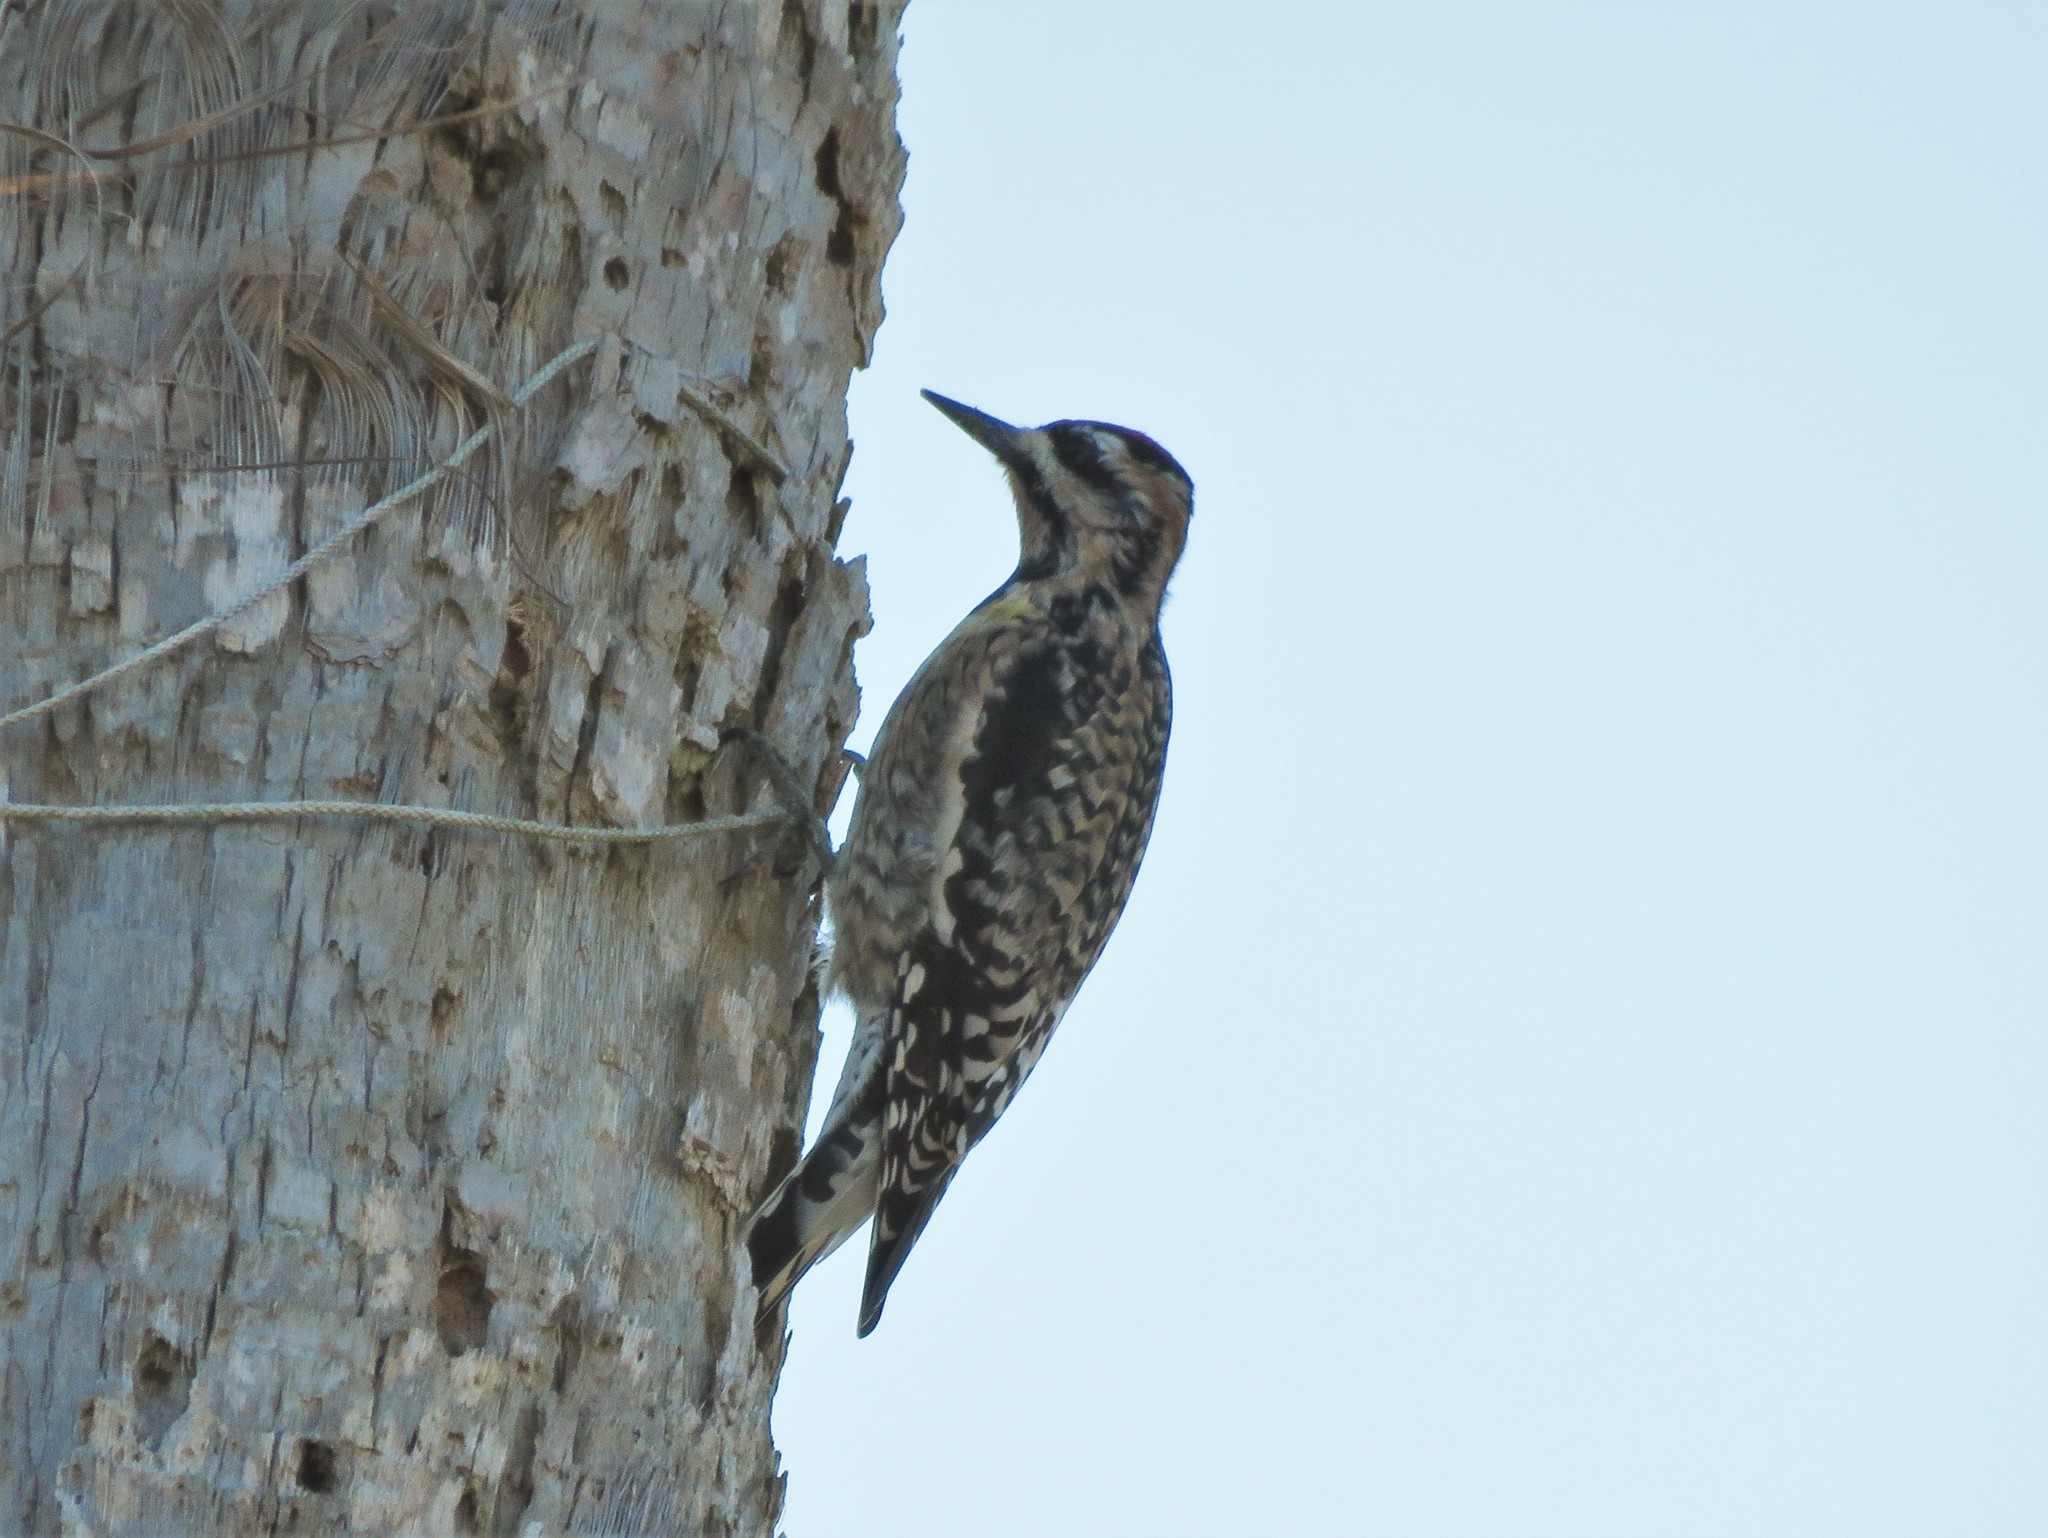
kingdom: Animalia
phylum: Chordata
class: Aves
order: Piciformes
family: Picidae
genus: Sphyrapicus
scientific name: Sphyrapicus varius
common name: Yellow-bellied sapsucker
